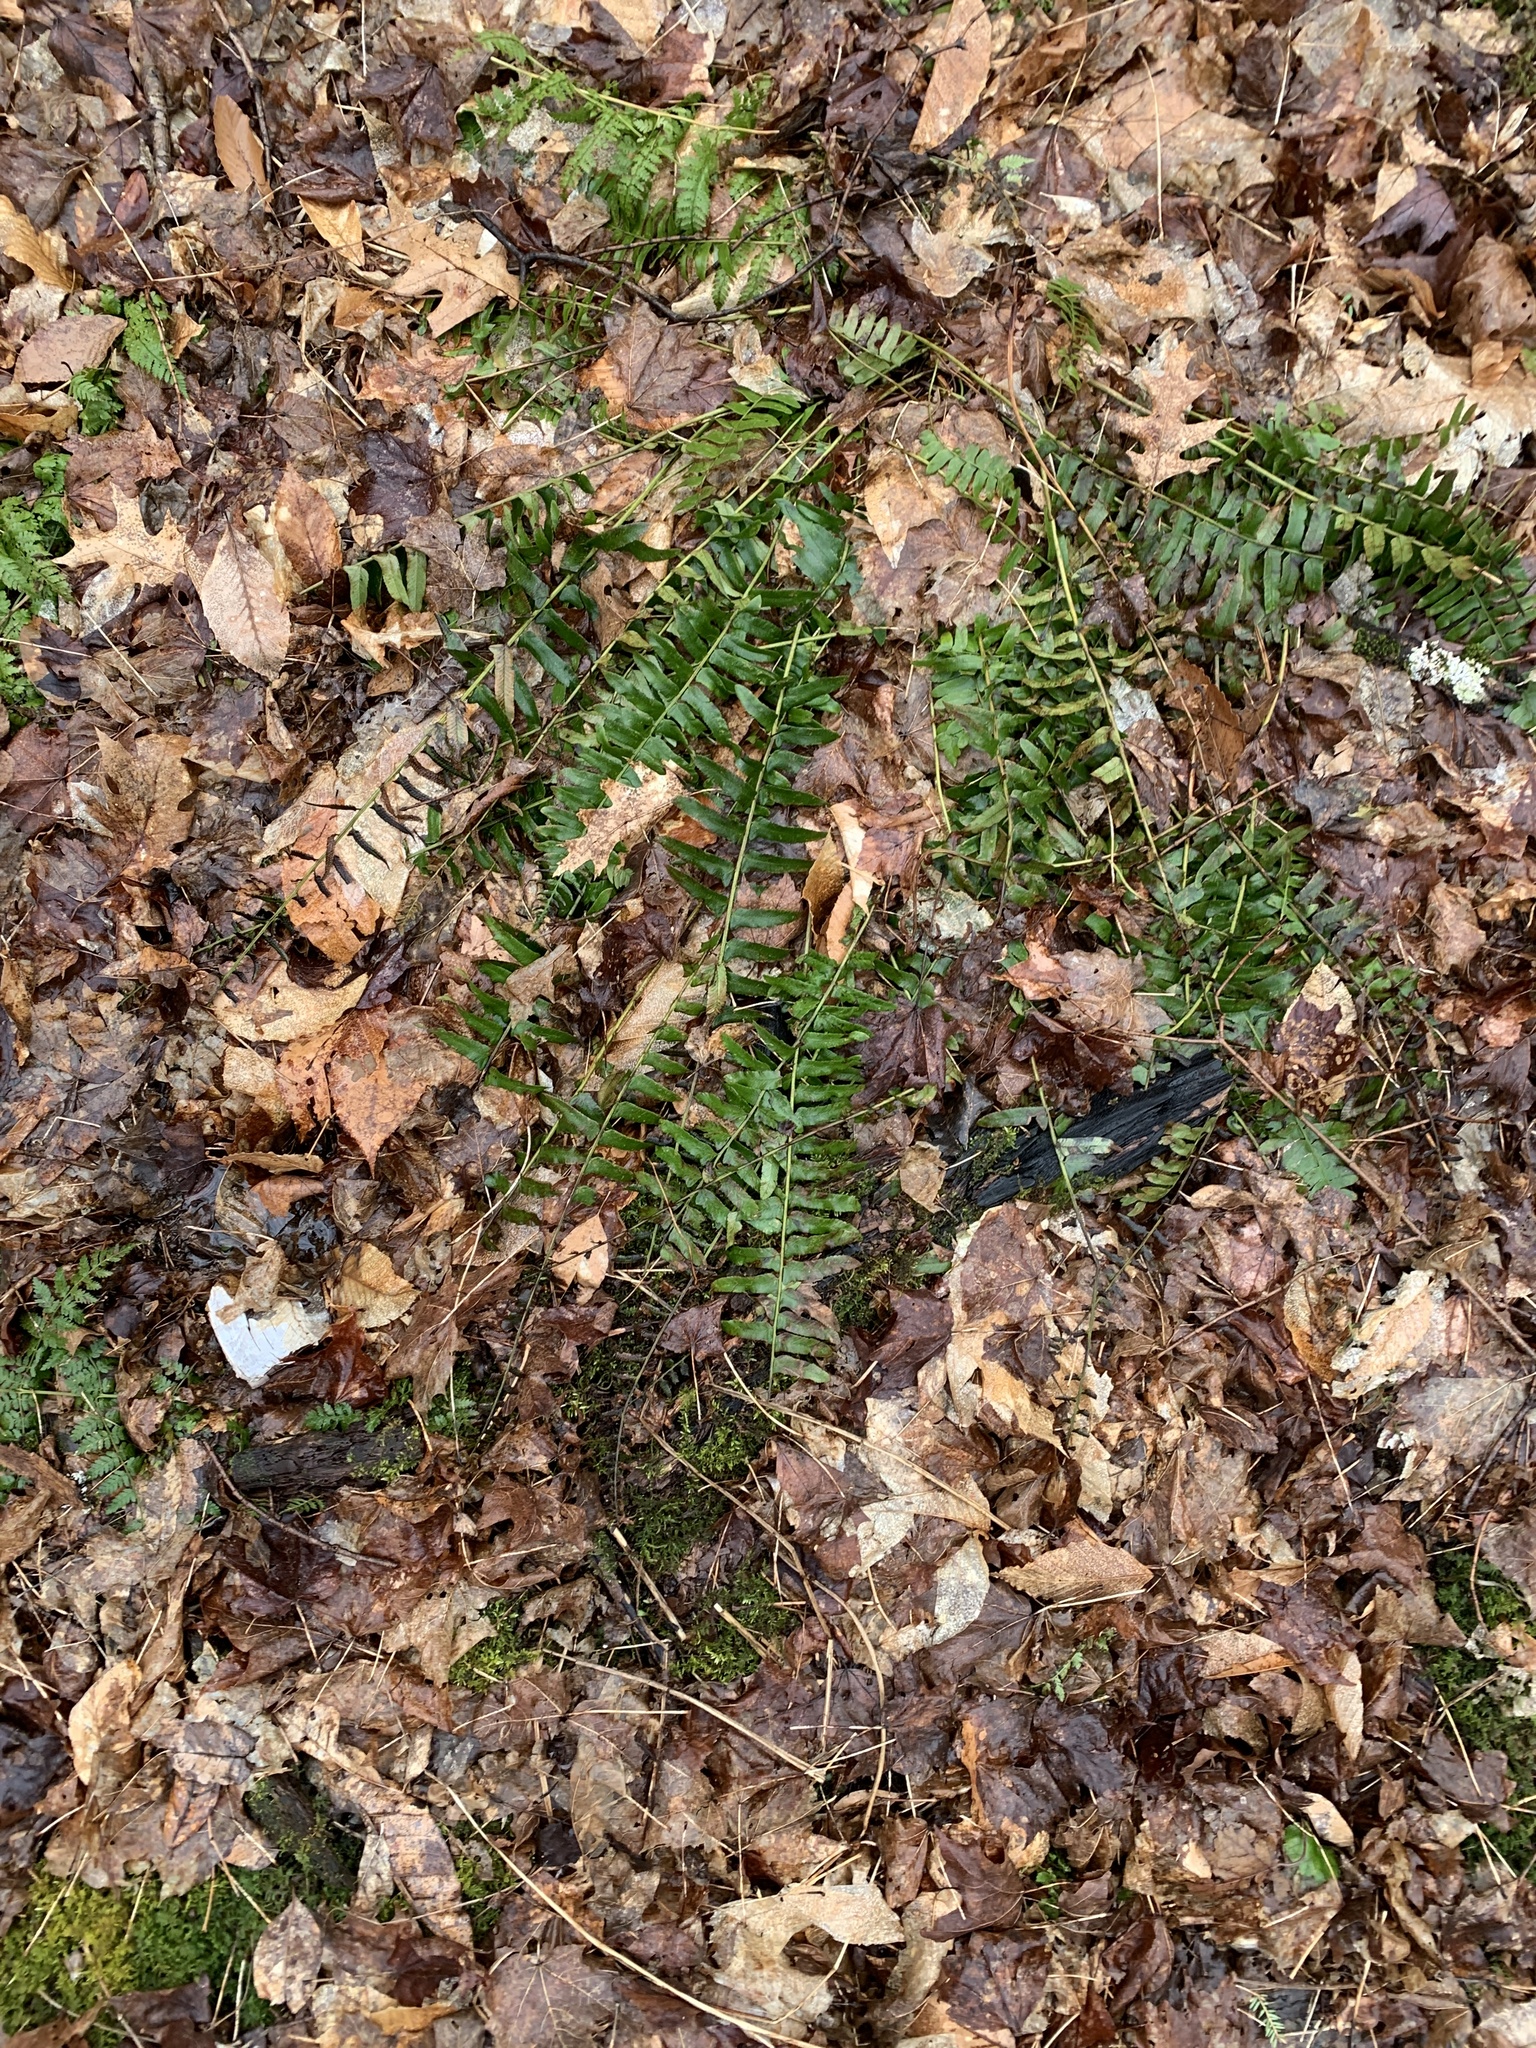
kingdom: Plantae
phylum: Tracheophyta
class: Polypodiopsida
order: Polypodiales
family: Dryopteridaceae
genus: Polystichum
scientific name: Polystichum acrostichoides
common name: Christmas fern
